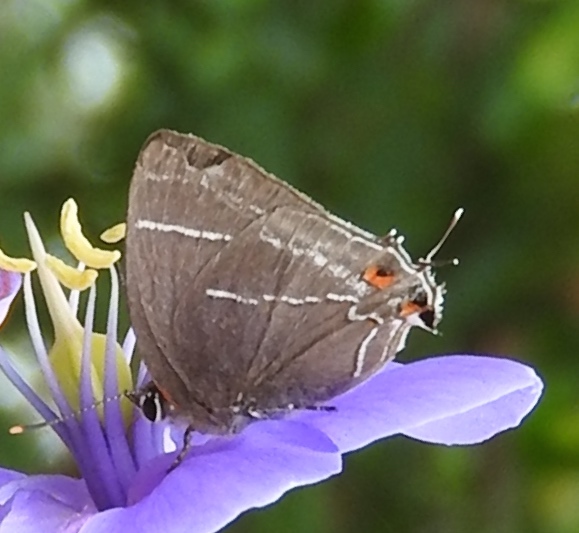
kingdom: Animalia
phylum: Arthropoda
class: Insecta
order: Lepidoptera
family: Lycaenidae
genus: Thereus
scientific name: Thereus oppia
